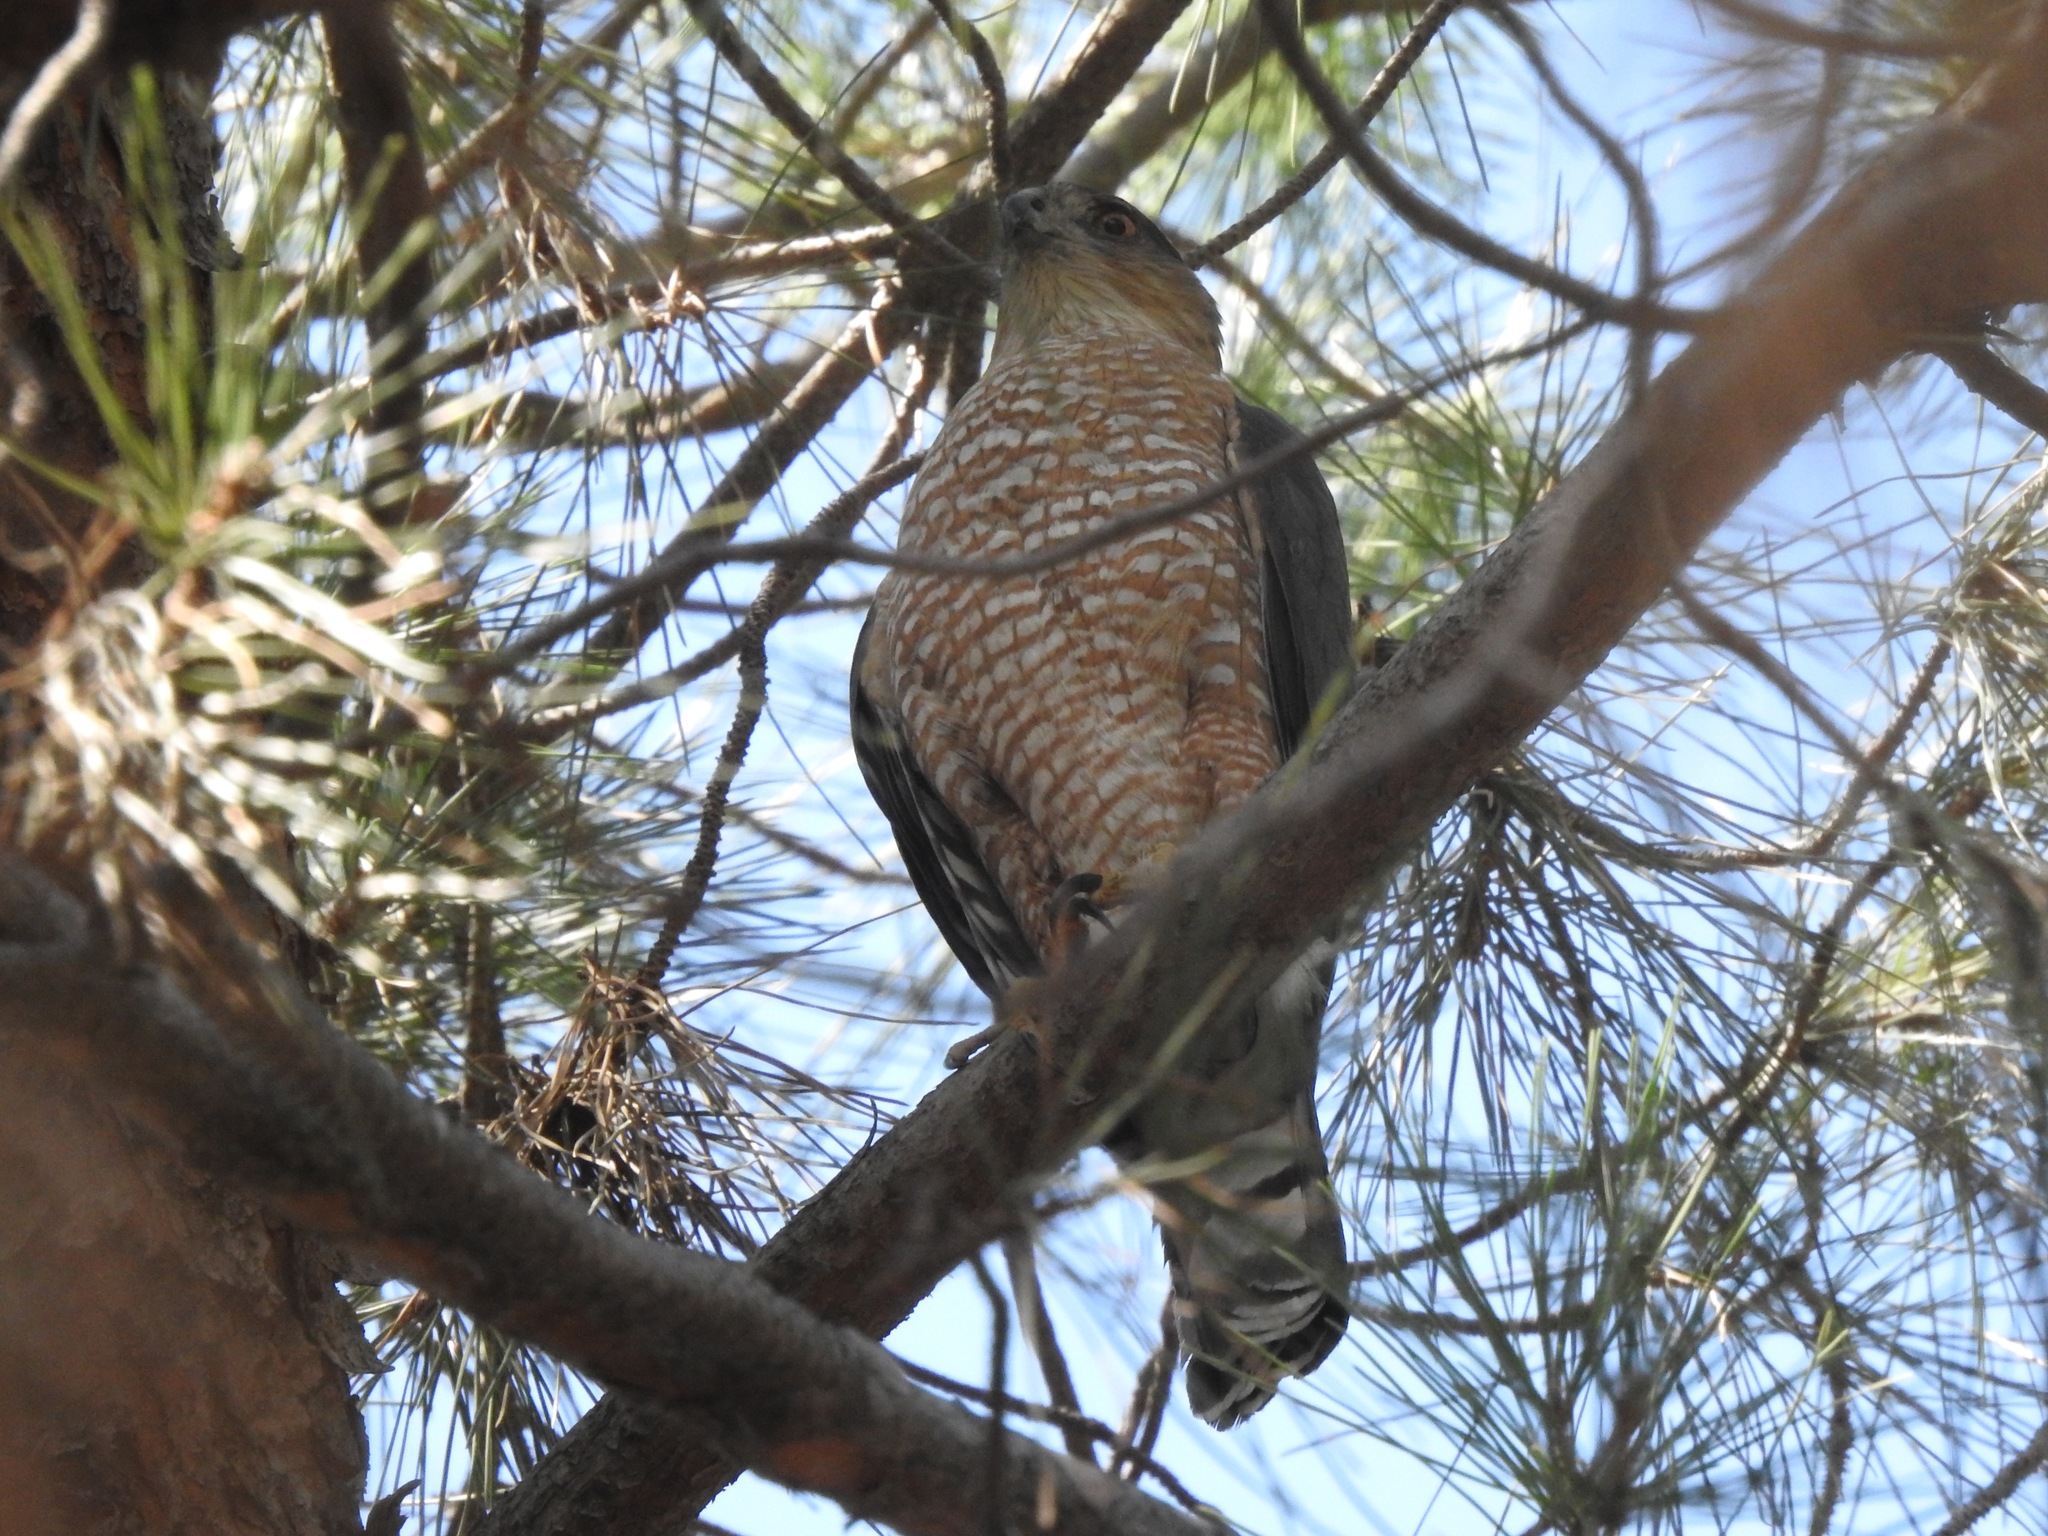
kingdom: Animalia
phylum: Chordata
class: Aves
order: Accipitriformes
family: Accipitridae
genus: Accipiter
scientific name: Accipiter cooperii
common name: Cooper's hawk
